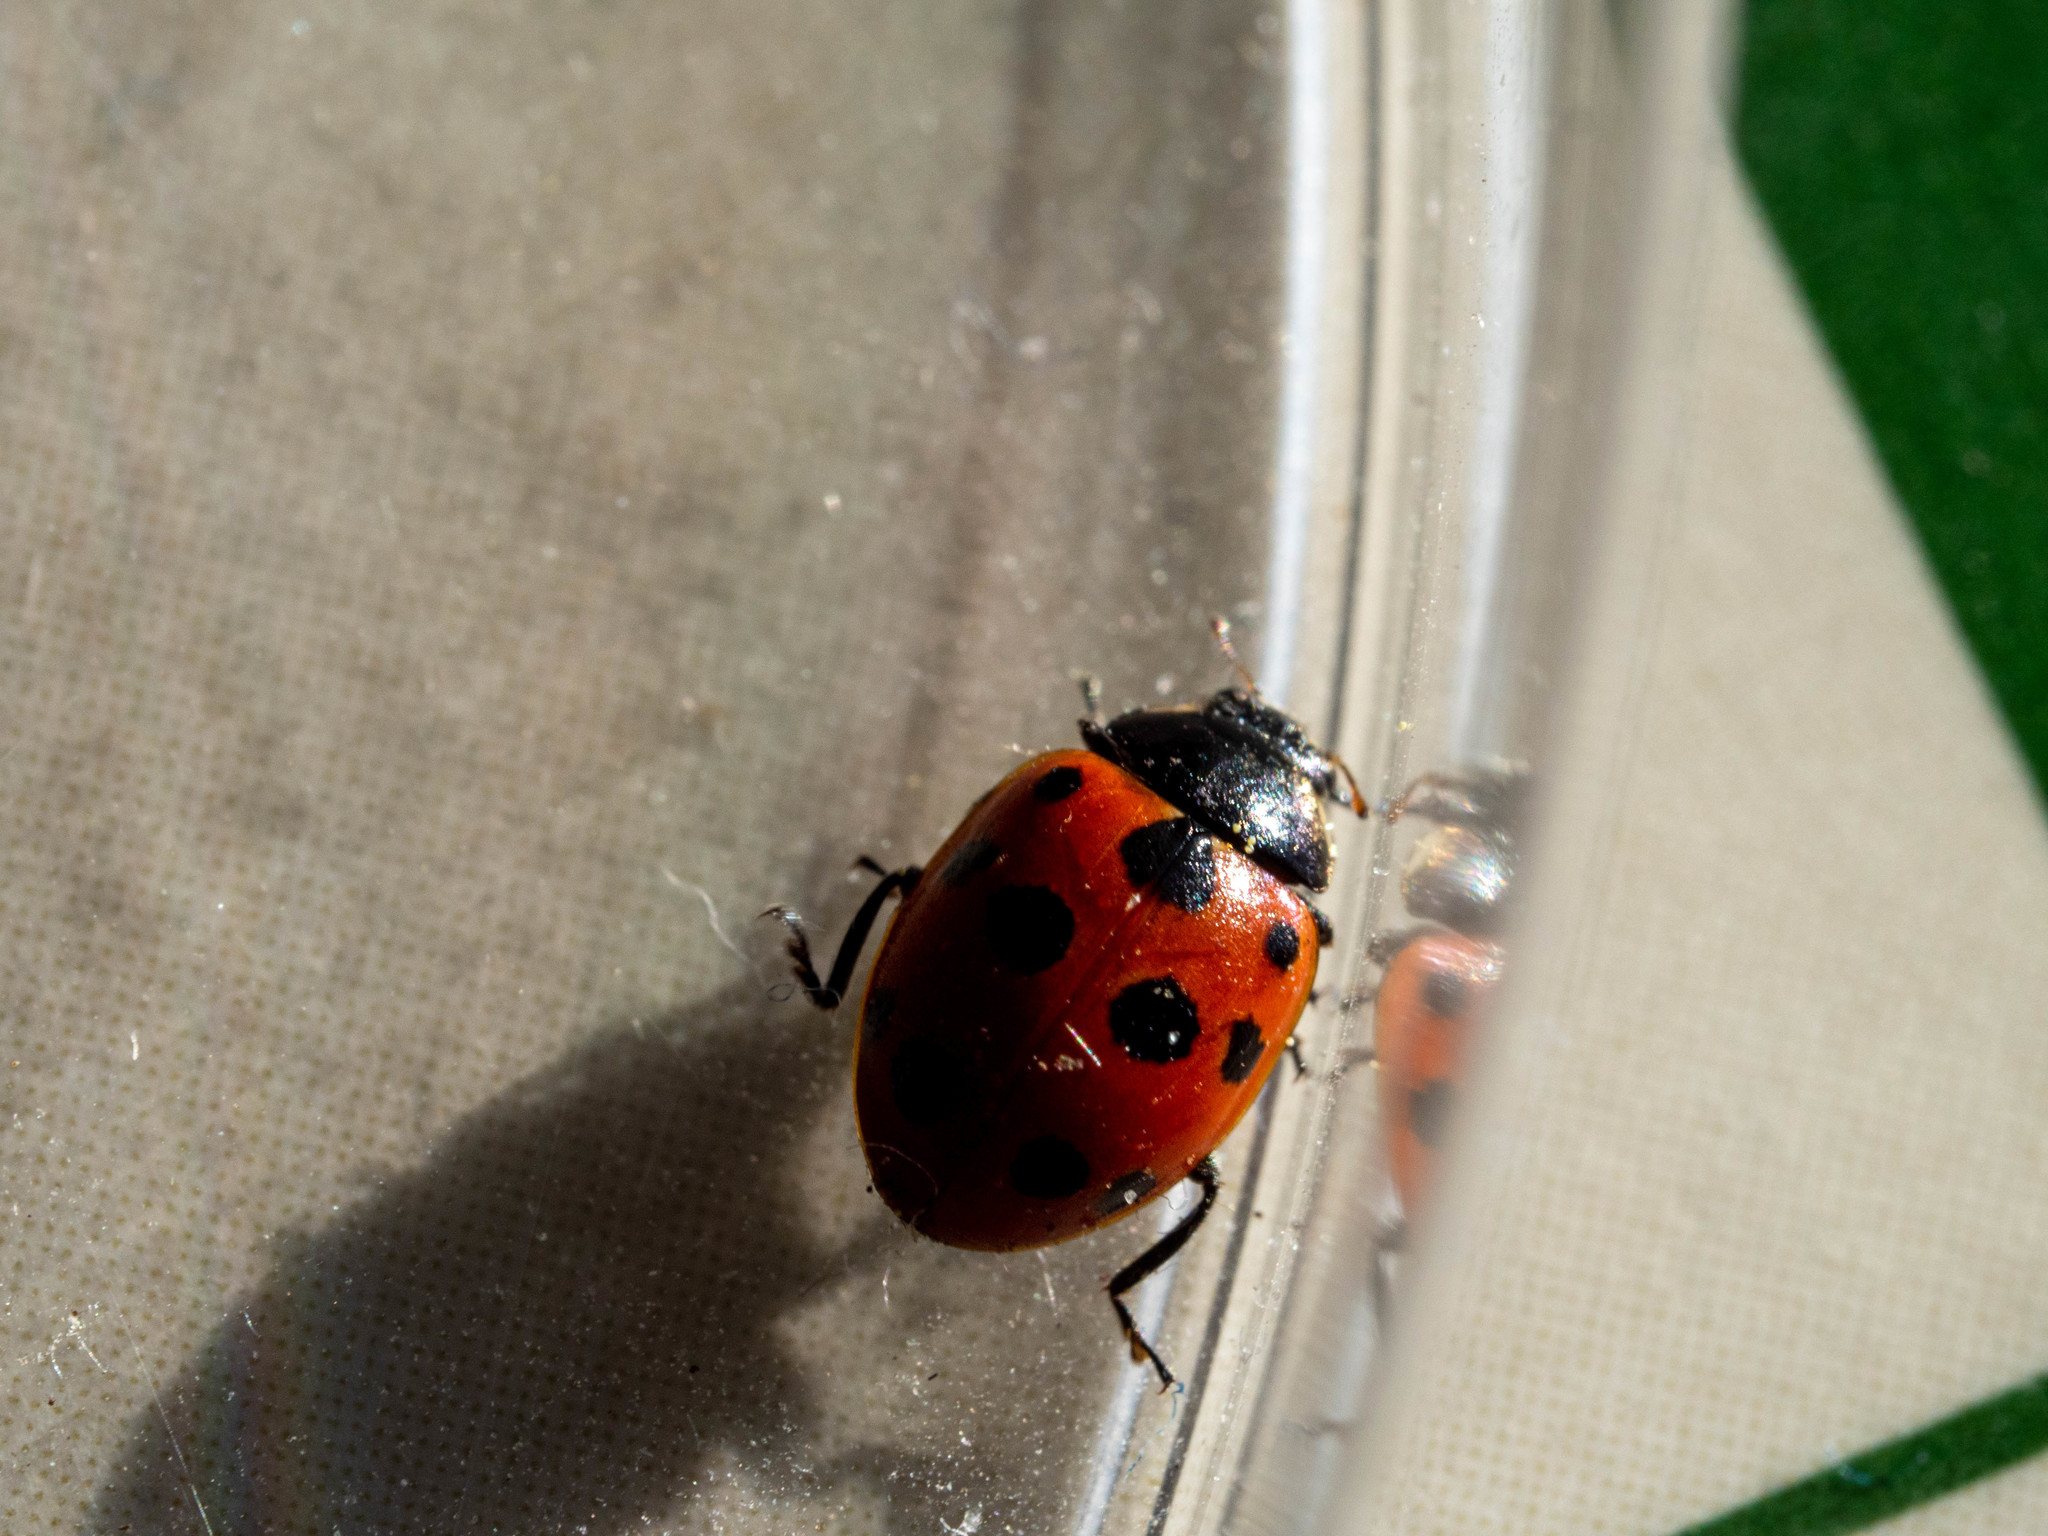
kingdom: Animalia
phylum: Arthropoda
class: Insecta
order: Coleoptera
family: Coccinellidae
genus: Coccinella
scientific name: Coccinella undecimpunctata
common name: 11-spot ladybird
